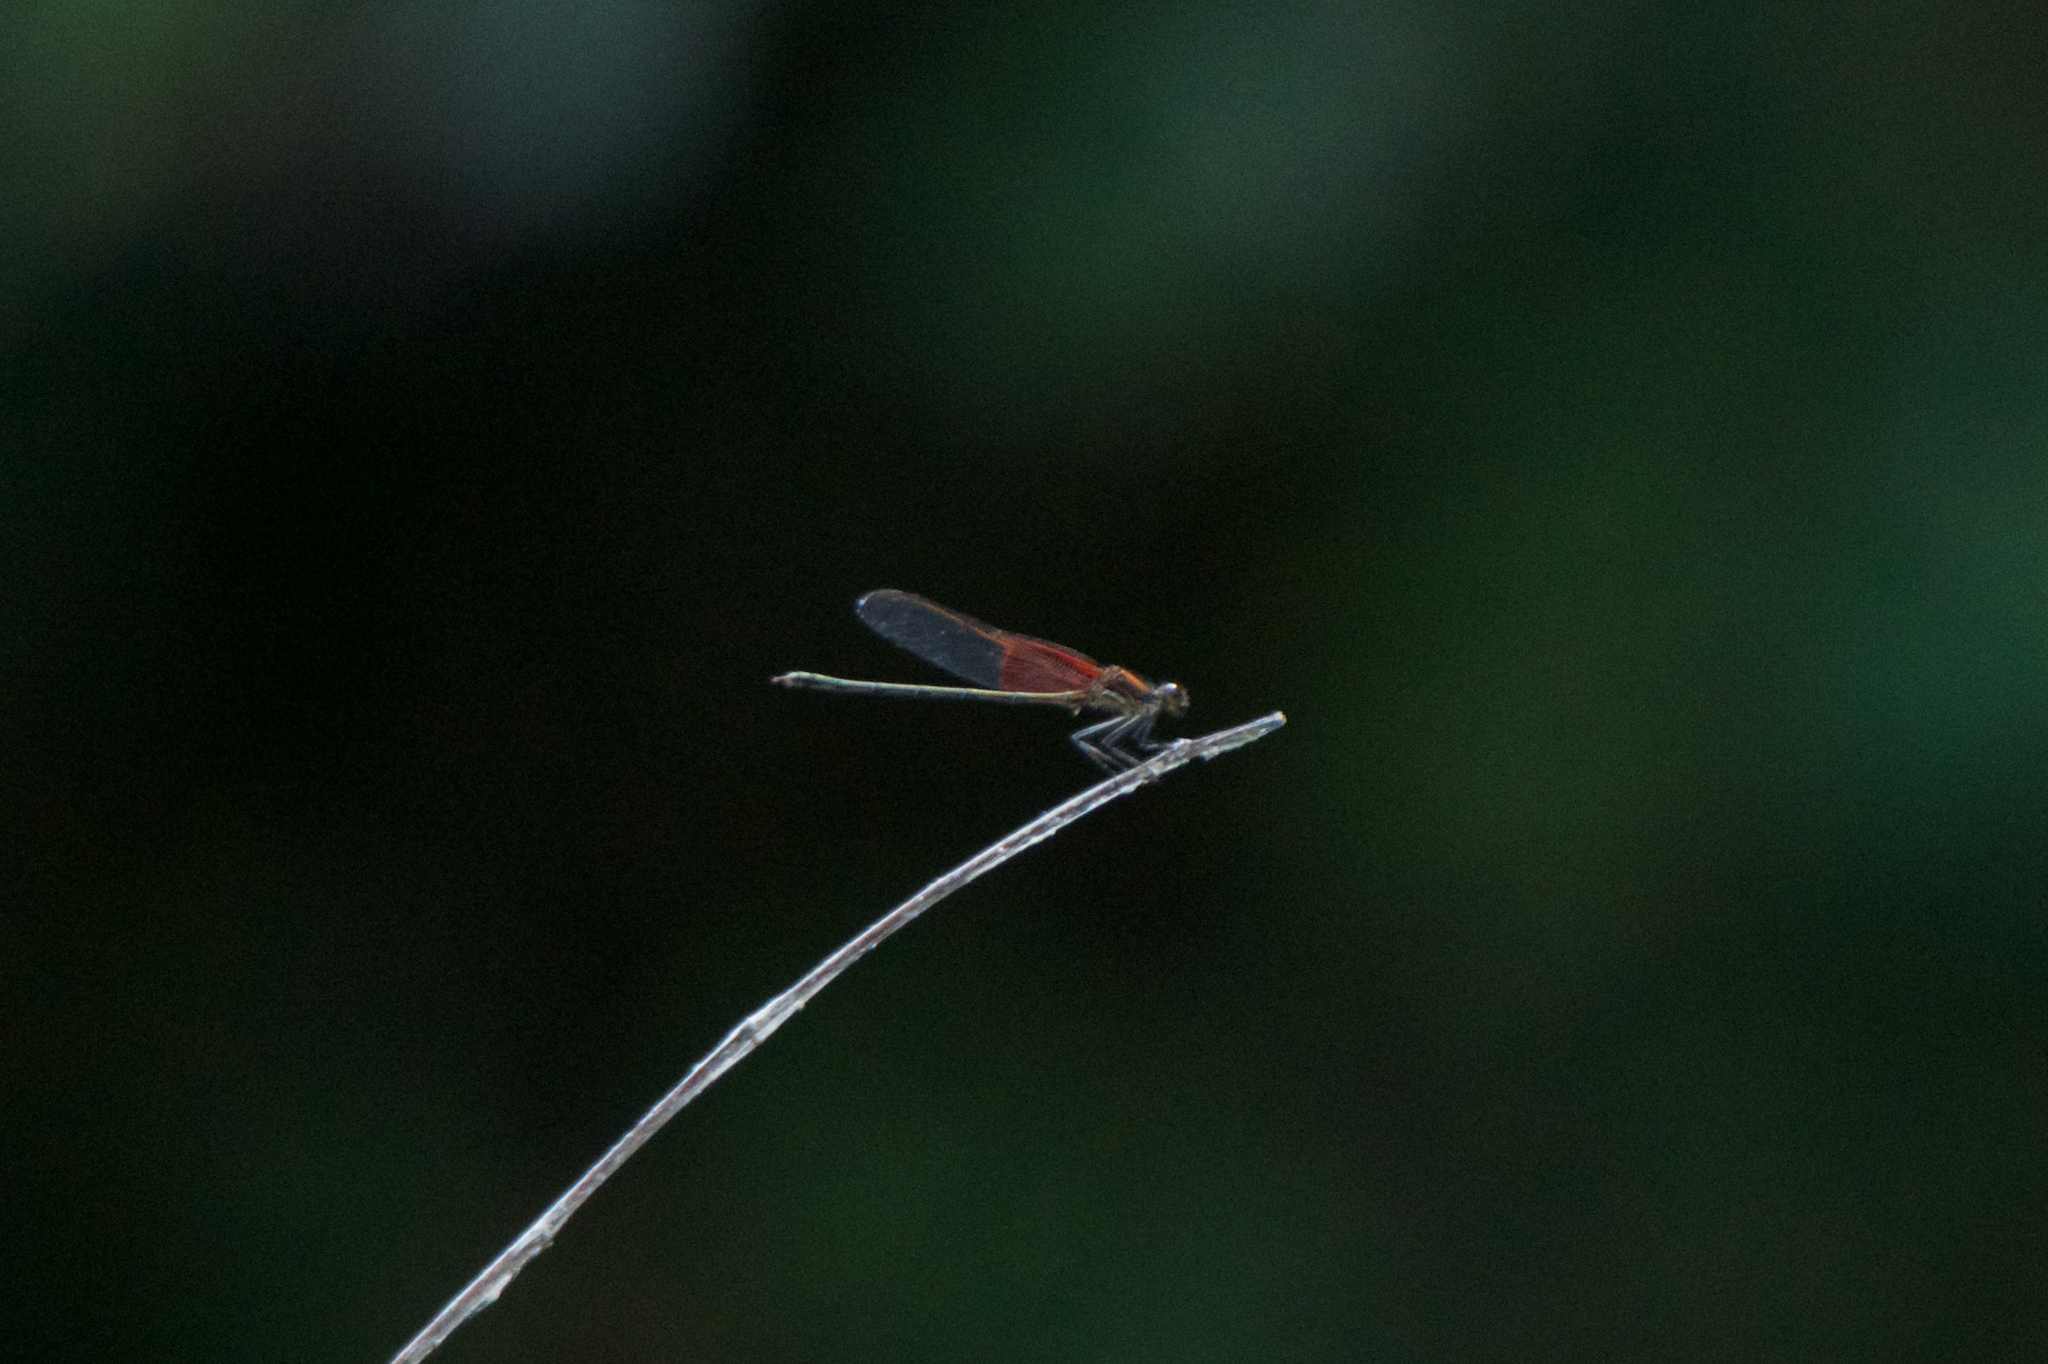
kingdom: Animalia
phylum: Arthropoda
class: Insecta
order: Odonata
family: Calopterygidae
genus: Hetaerina
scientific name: Hetaerina americana
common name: American rubyspot
